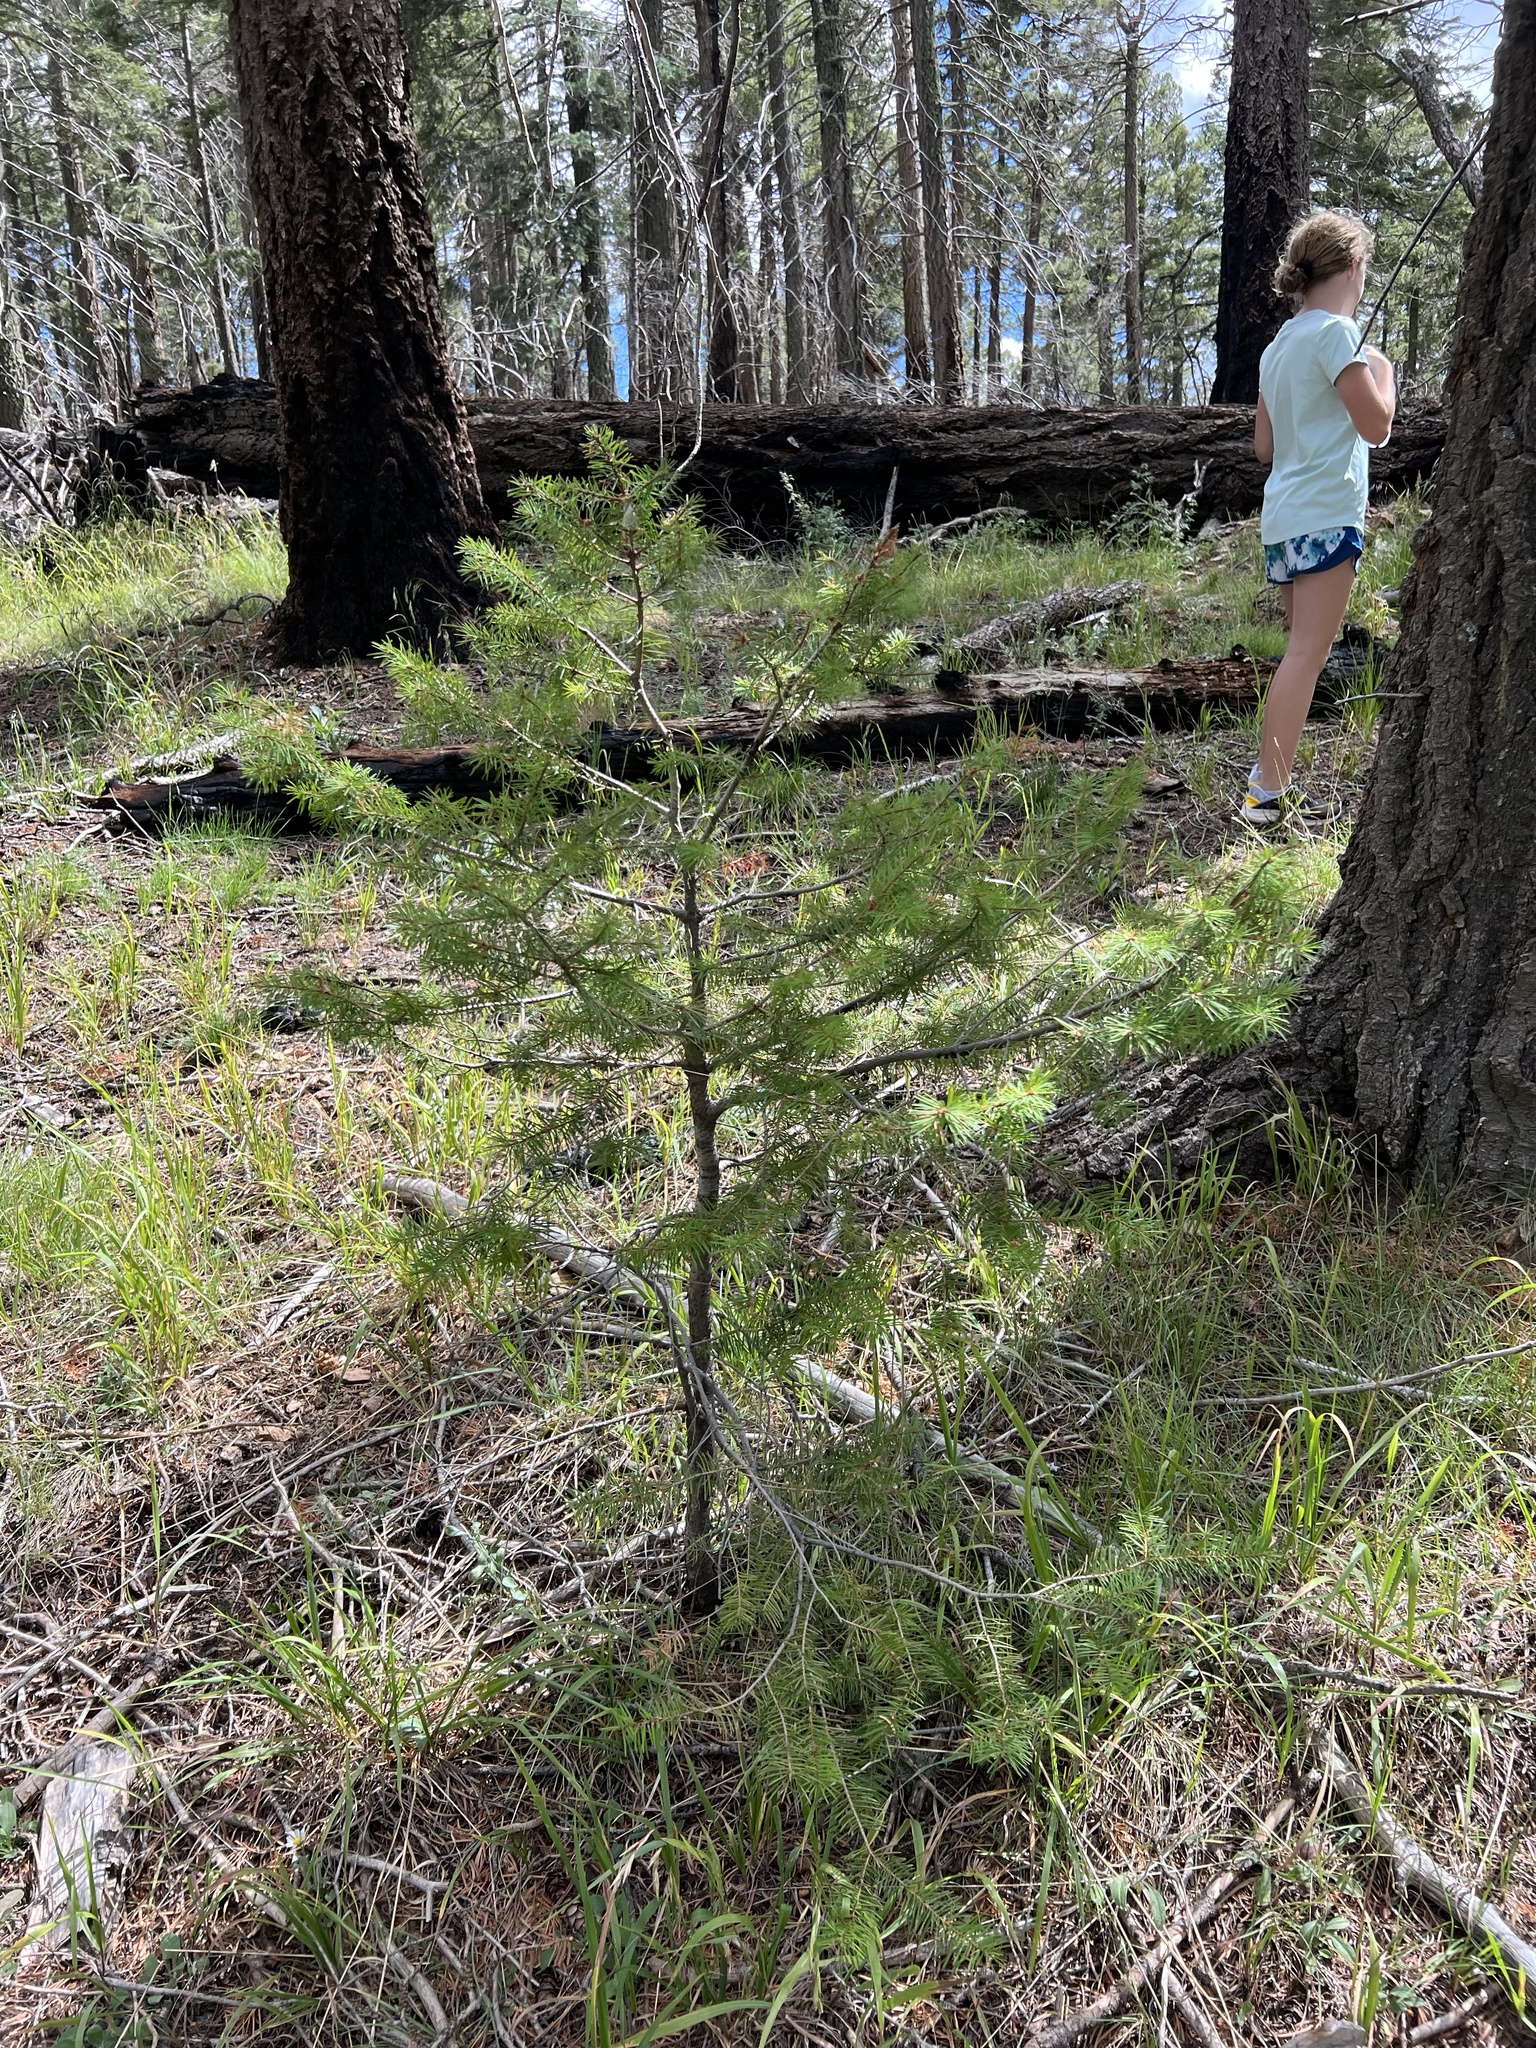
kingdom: Plantae
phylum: Tracheophyta
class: Pinopsida
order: Pinales
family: Pinaceae
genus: Pseudotsuga
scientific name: Pseudotsuga menziesii
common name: Douglas fir
